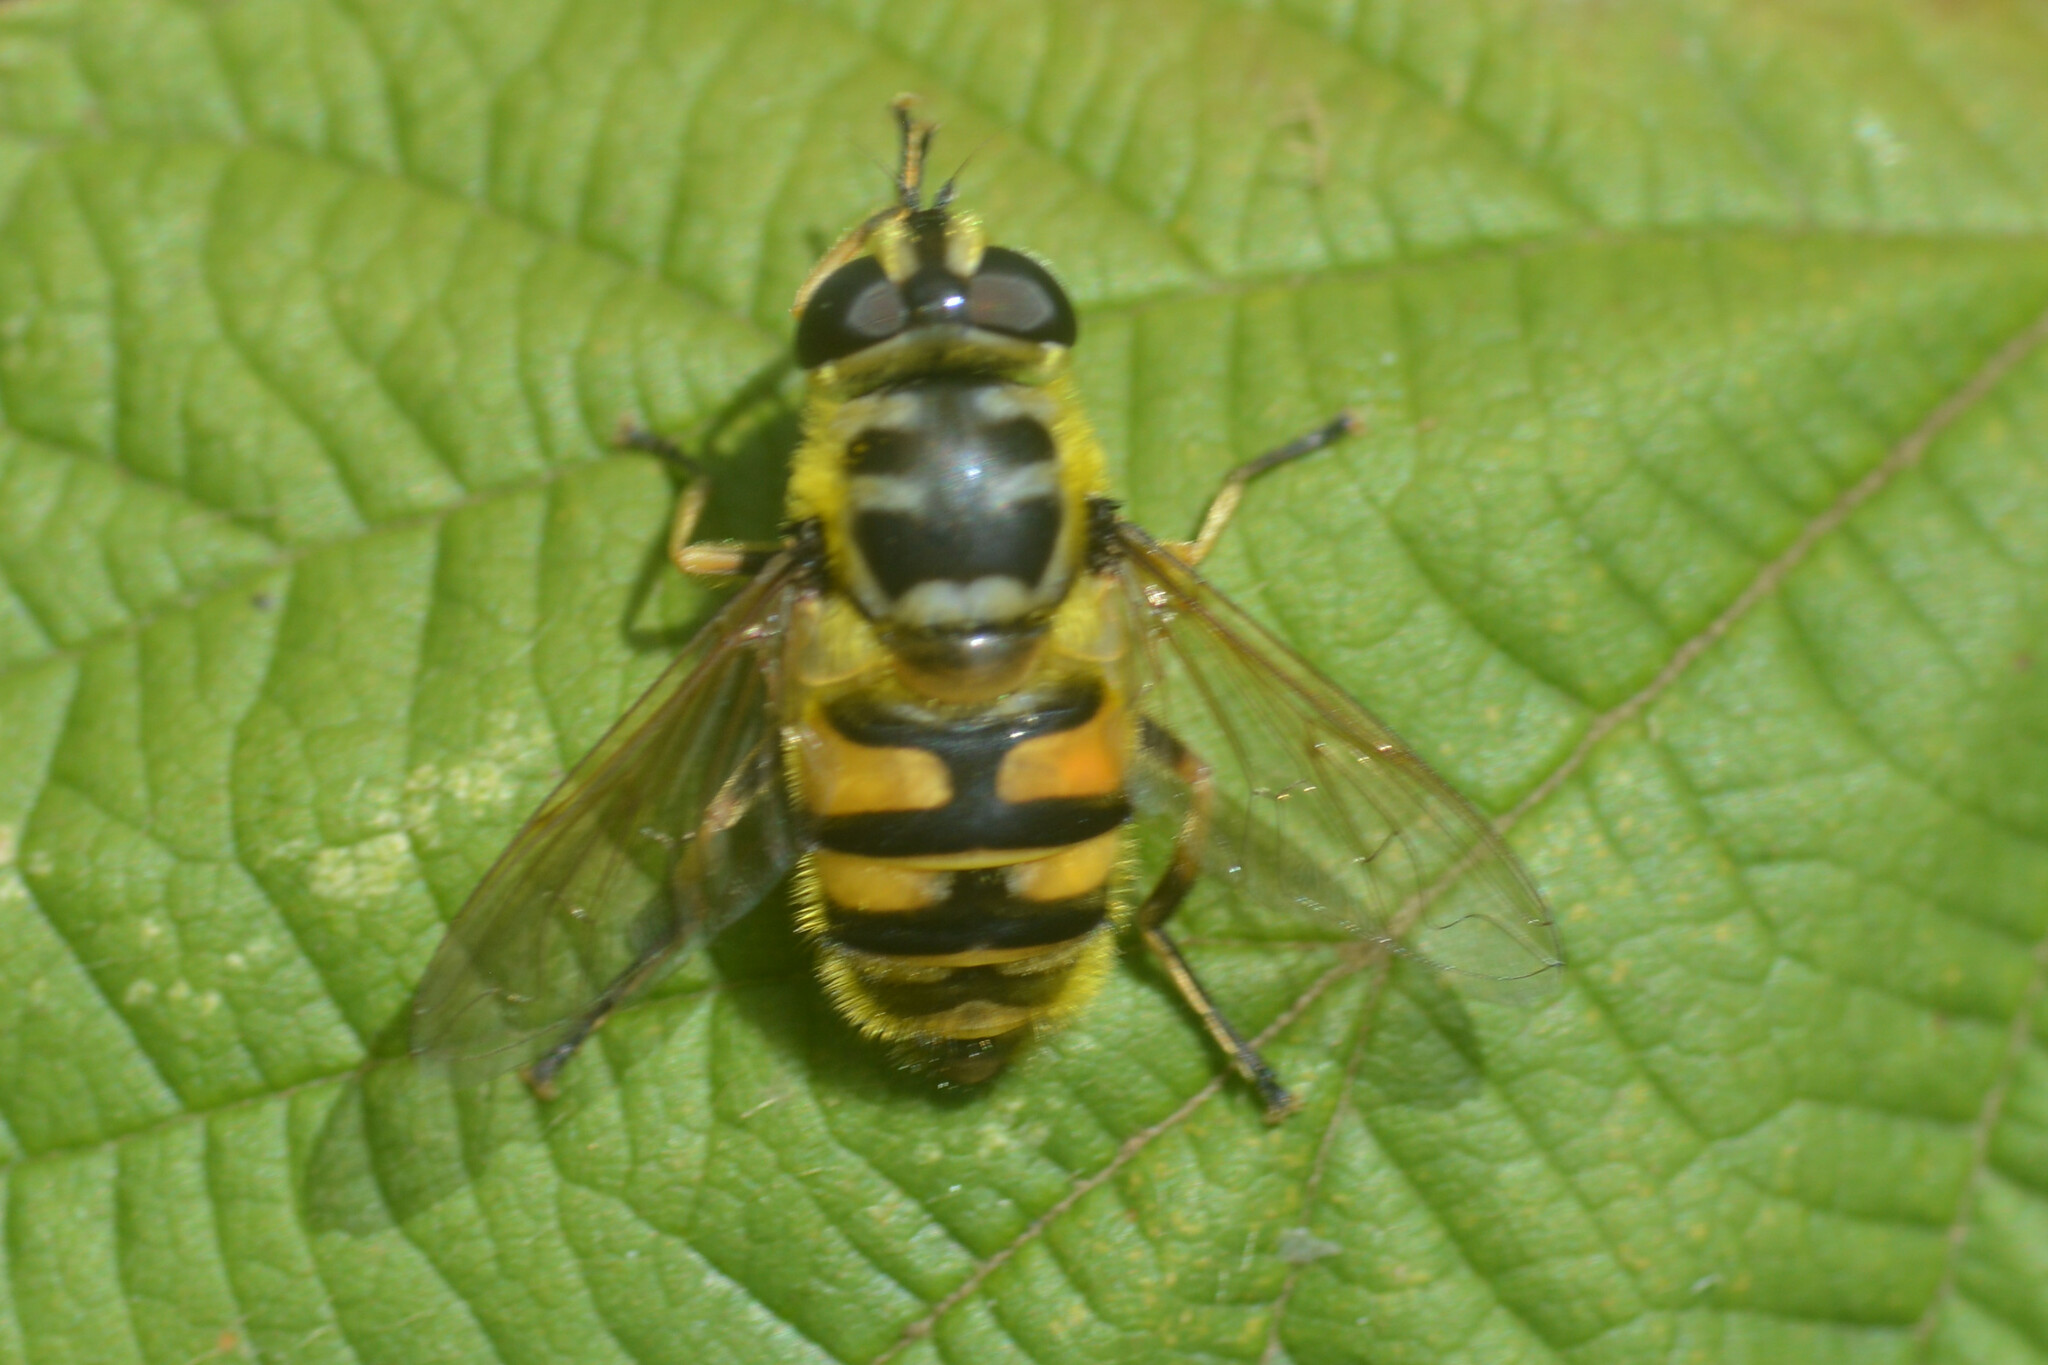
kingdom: Animalia
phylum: Arthropoda
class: Insecta
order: Diptera
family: Syrphidae
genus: Myathropa
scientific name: Myathropa florea
